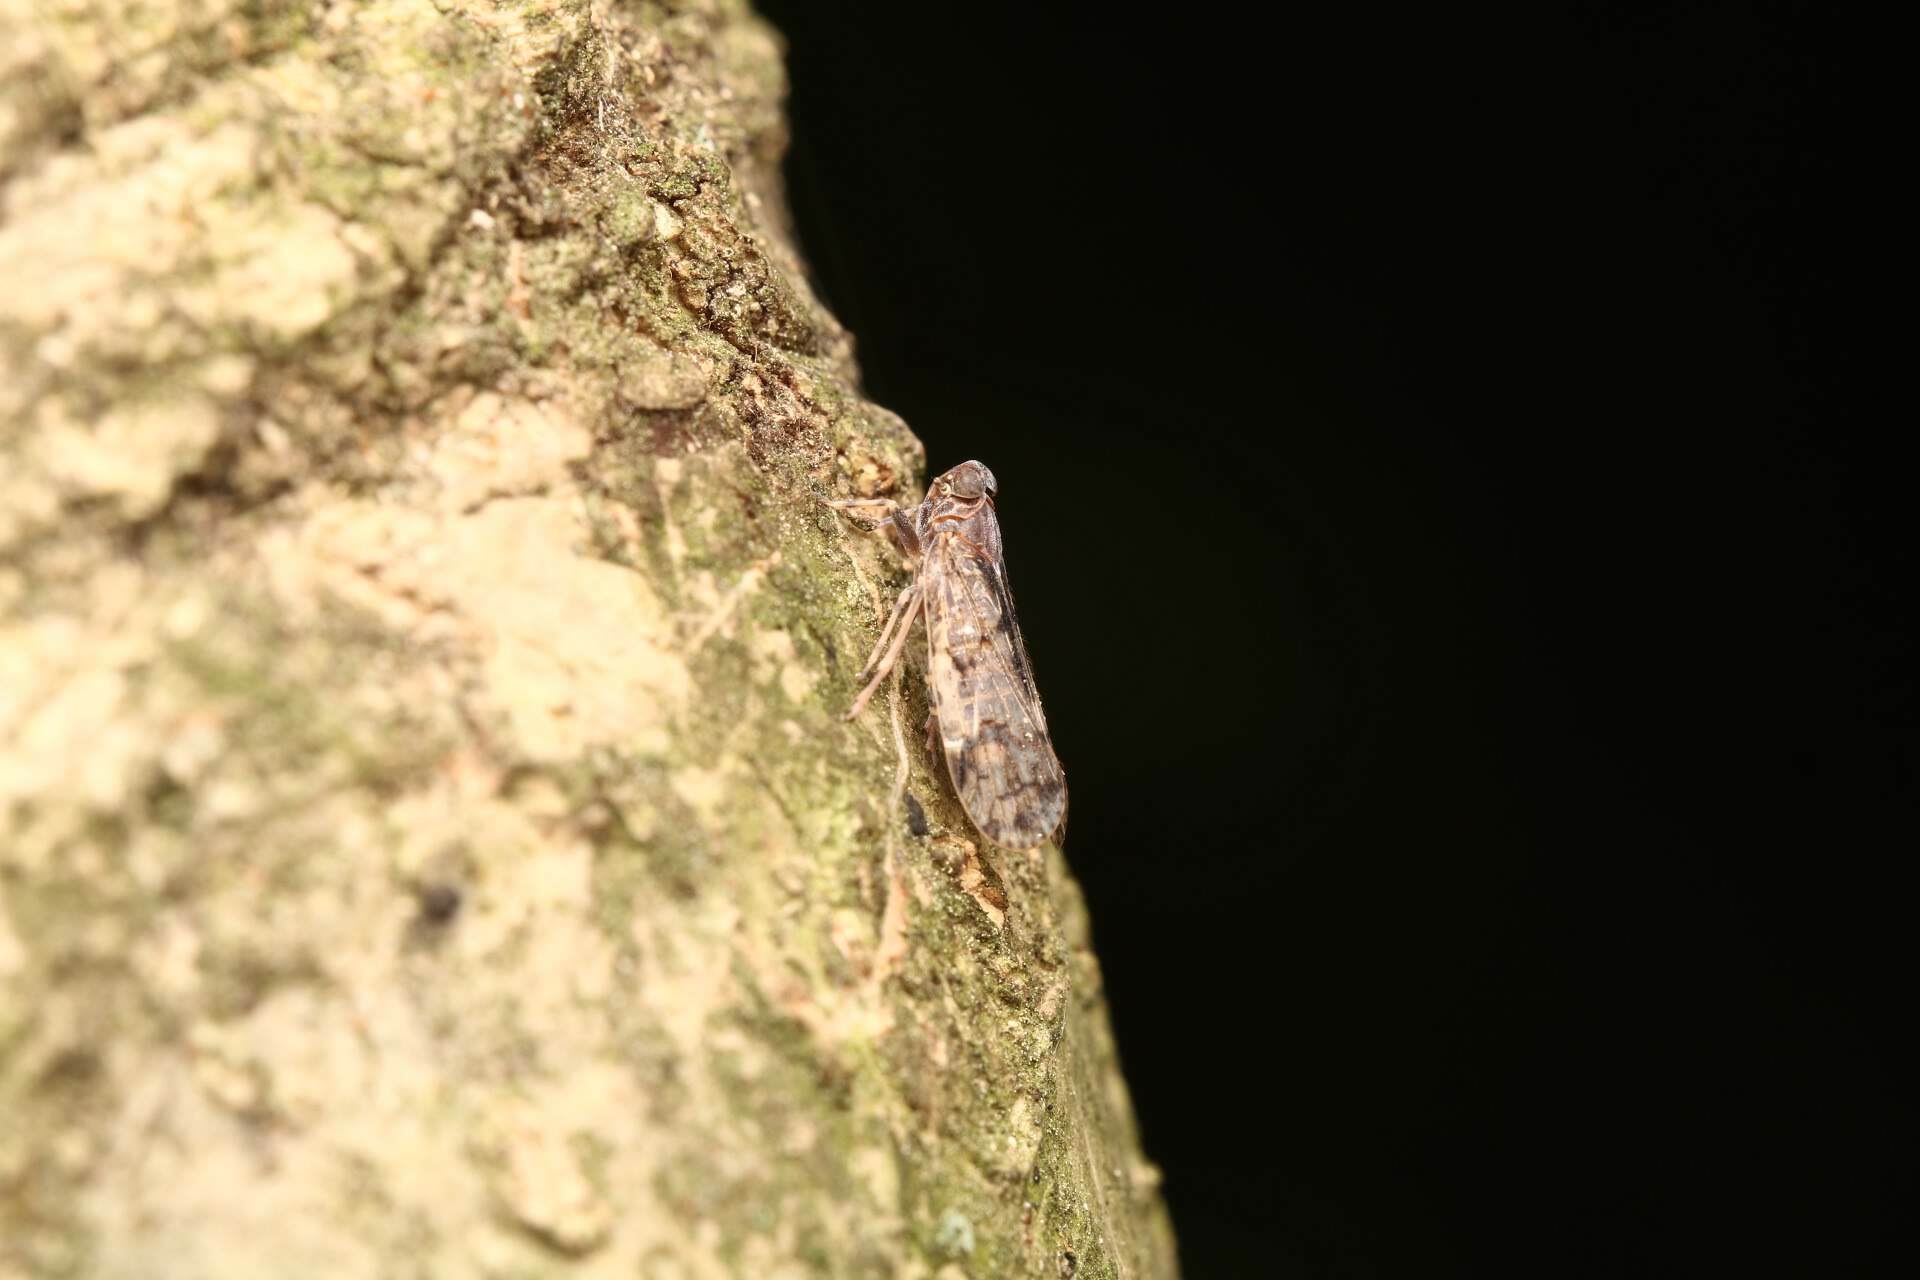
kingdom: Animalia
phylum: Arthropoda
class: Insecta
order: Hemiptera
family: Cixiidae
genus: Melanoliarus
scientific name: Melanoliarus placitus
